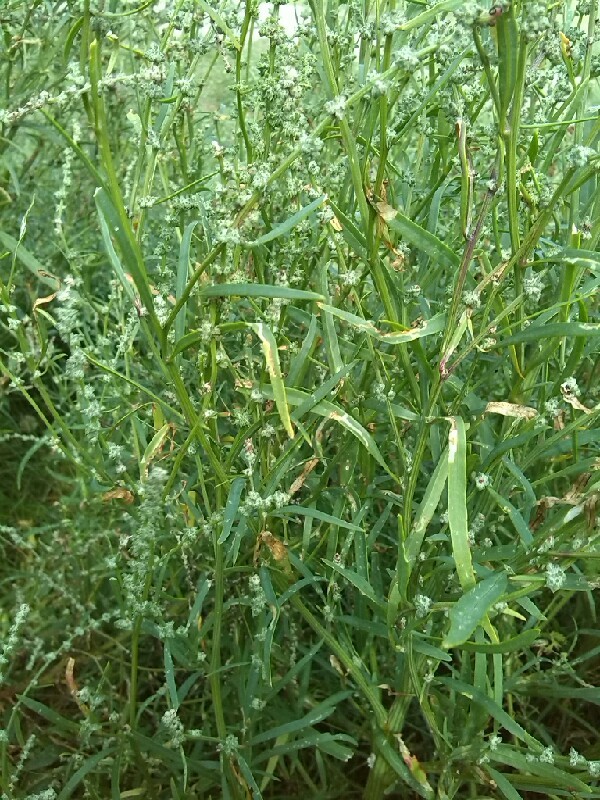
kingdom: Plantae
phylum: Tracheophyta
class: Magnoliopsida
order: Caryophyllales
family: Amaranthaceae
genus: Atriplex
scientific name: Atriplex littoralis
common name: Grass-leaved orache
